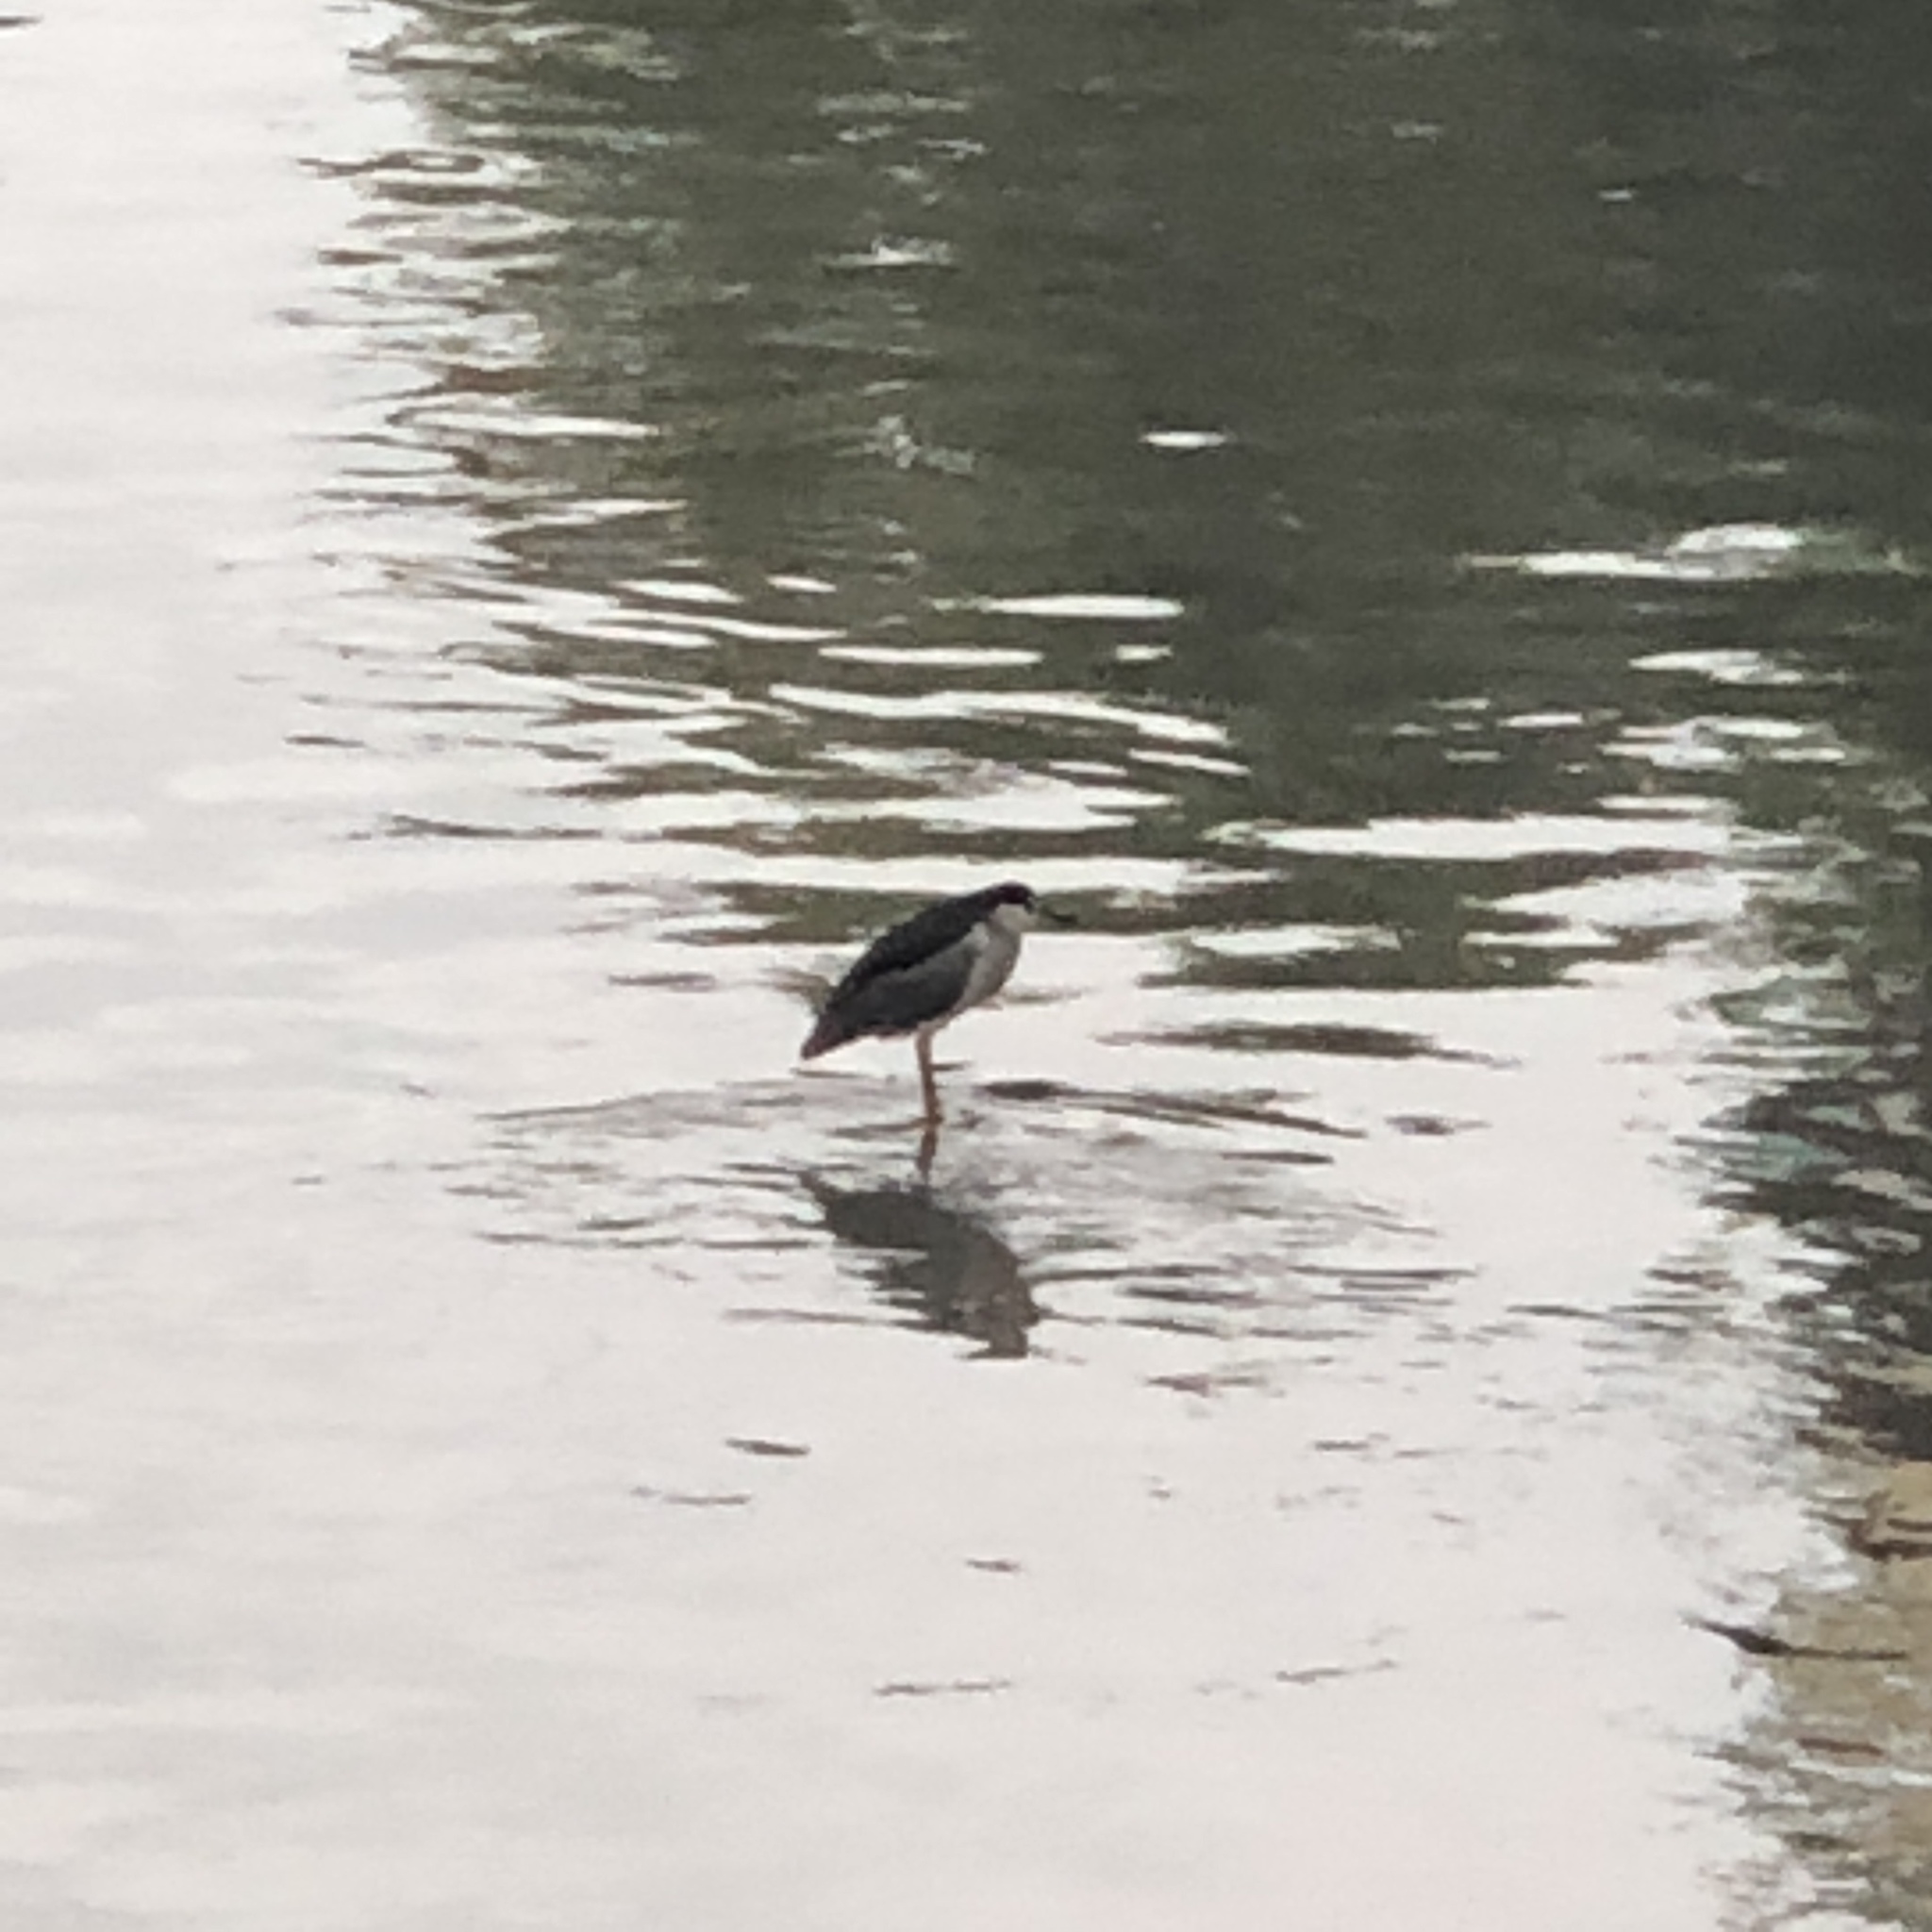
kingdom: Animalia
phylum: Chordata
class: Aves
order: Pelecaniformes
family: Ardeidae
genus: Nycticorax
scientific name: Nycticorax nycticorax
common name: Black-crowned night heron
